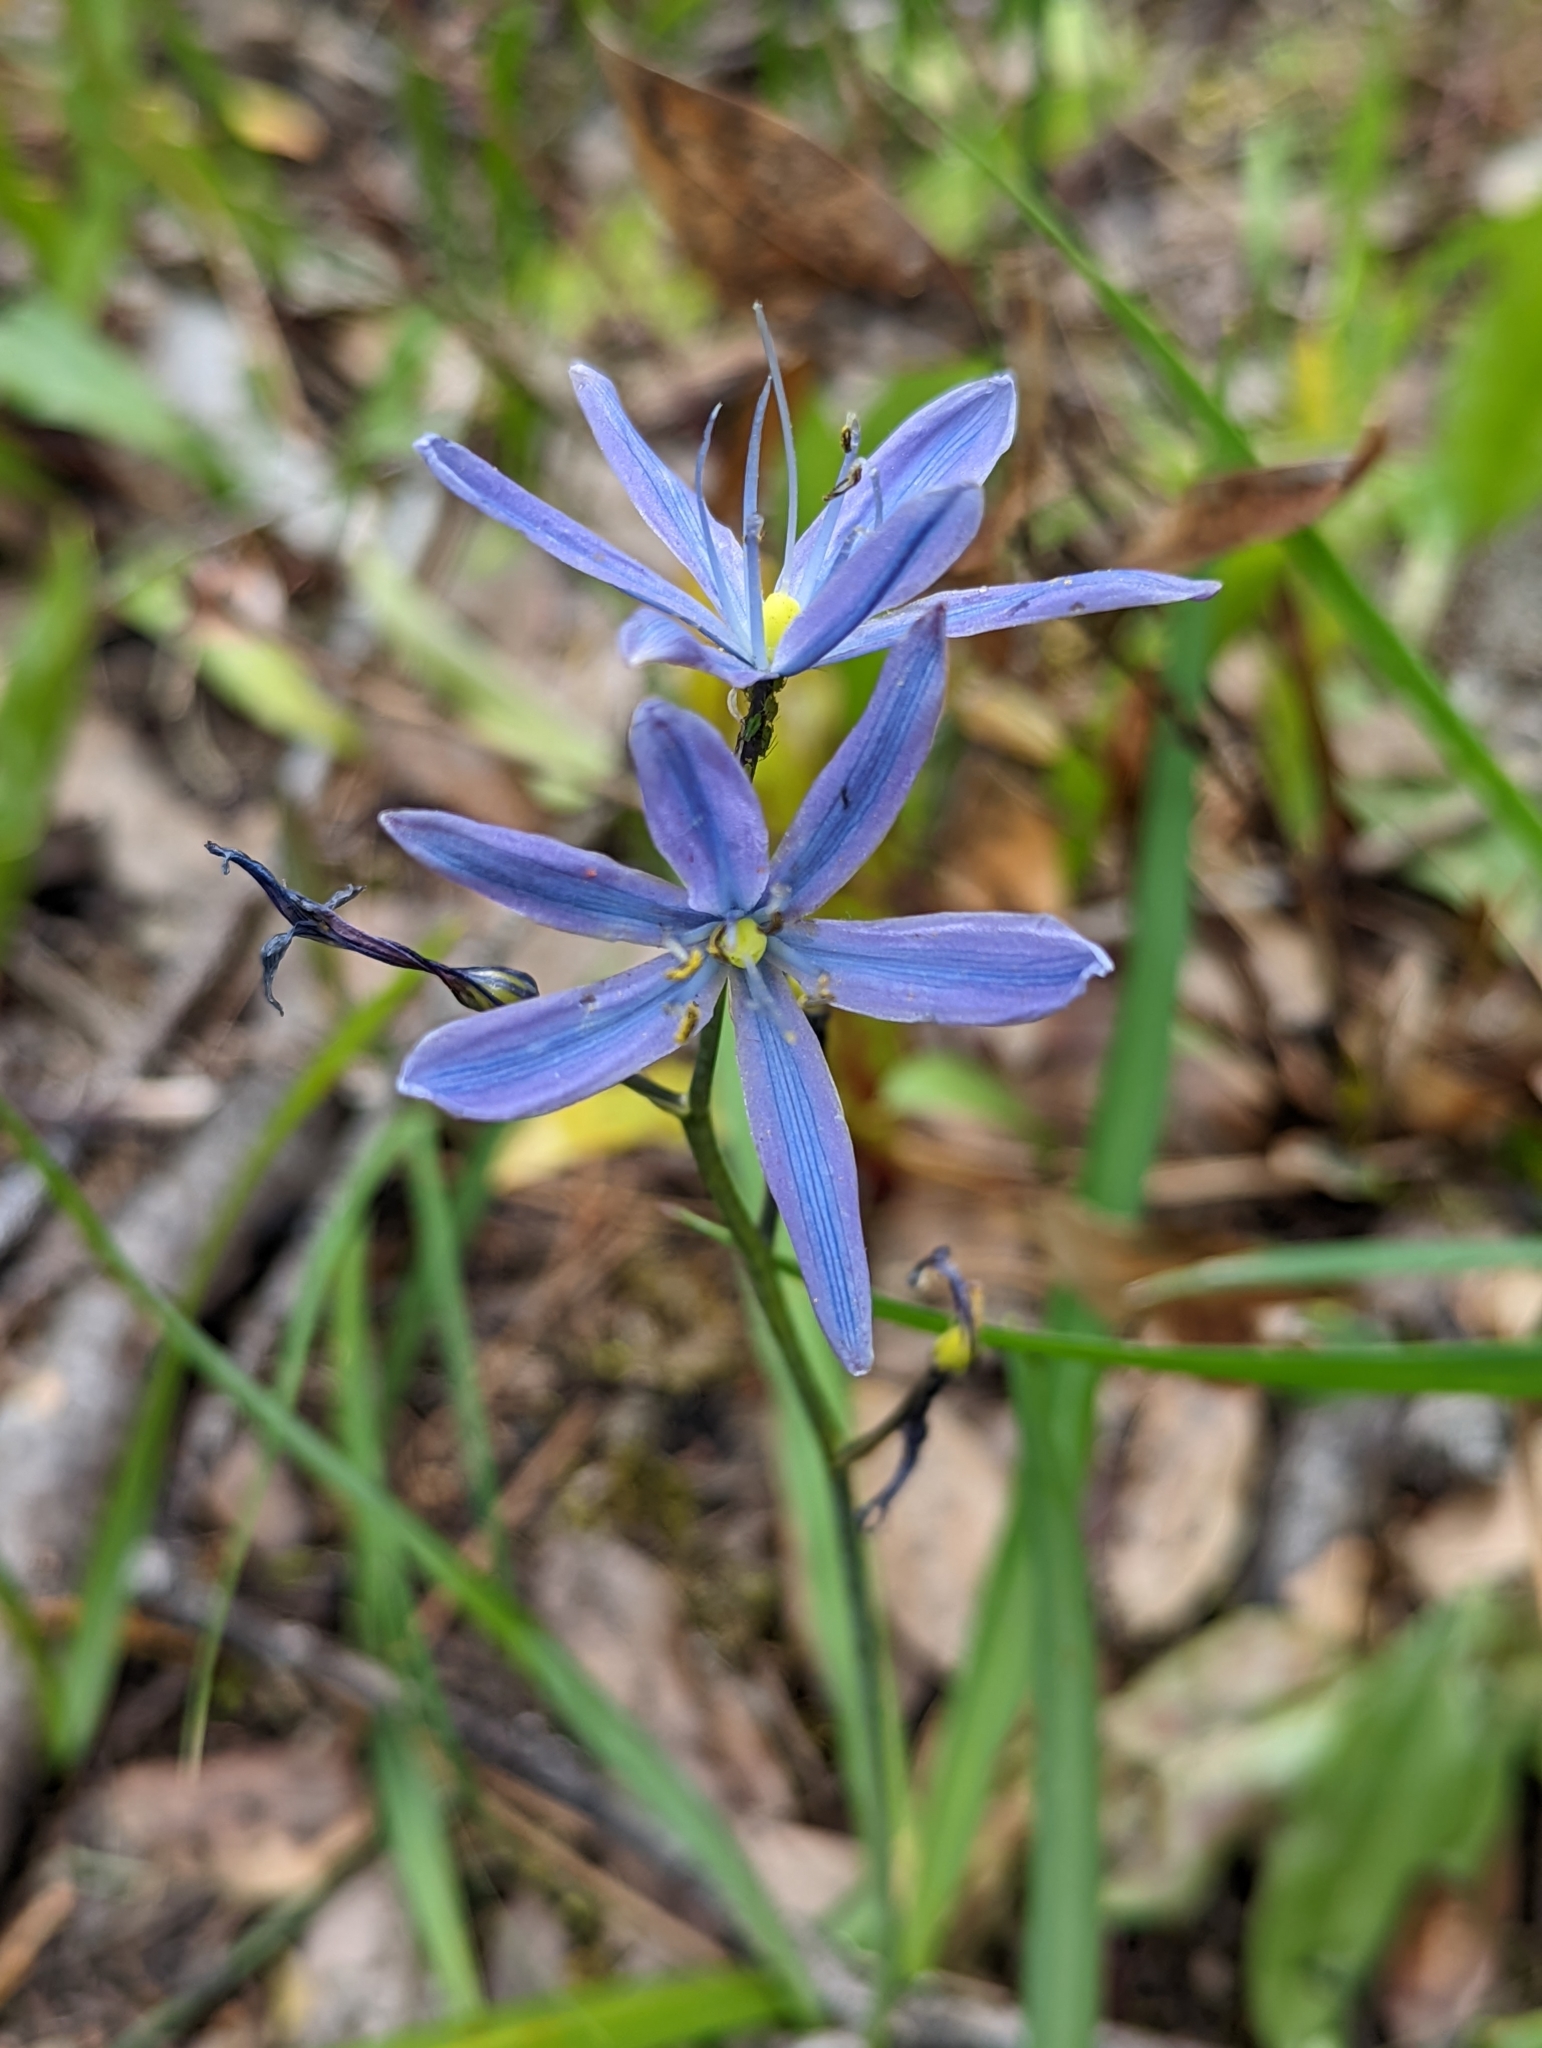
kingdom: Plantae
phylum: Tracheophyta
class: Liliopsida
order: Asparagales
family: Asparagaceae
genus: Camassia
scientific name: Camassia leichtlinii
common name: Leichtlin's camas
